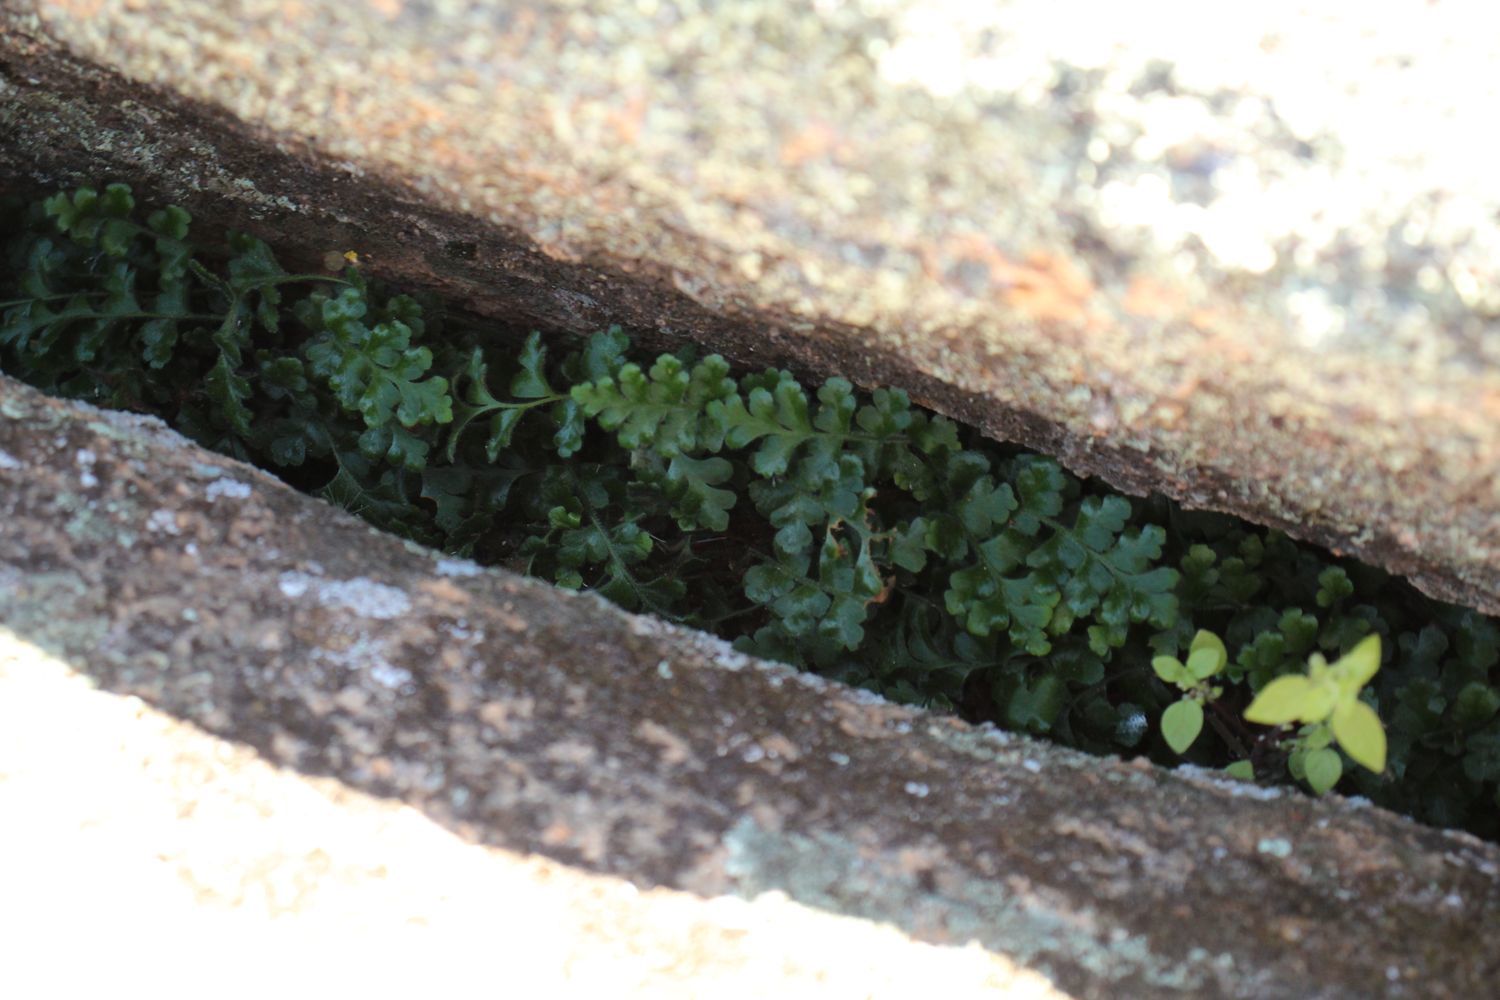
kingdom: Plantae
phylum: Tracheophyta
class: Polypodiopsida
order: Polypodiales
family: Aspleniaceae
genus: Asplenium
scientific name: Asplenium subglandulosum
